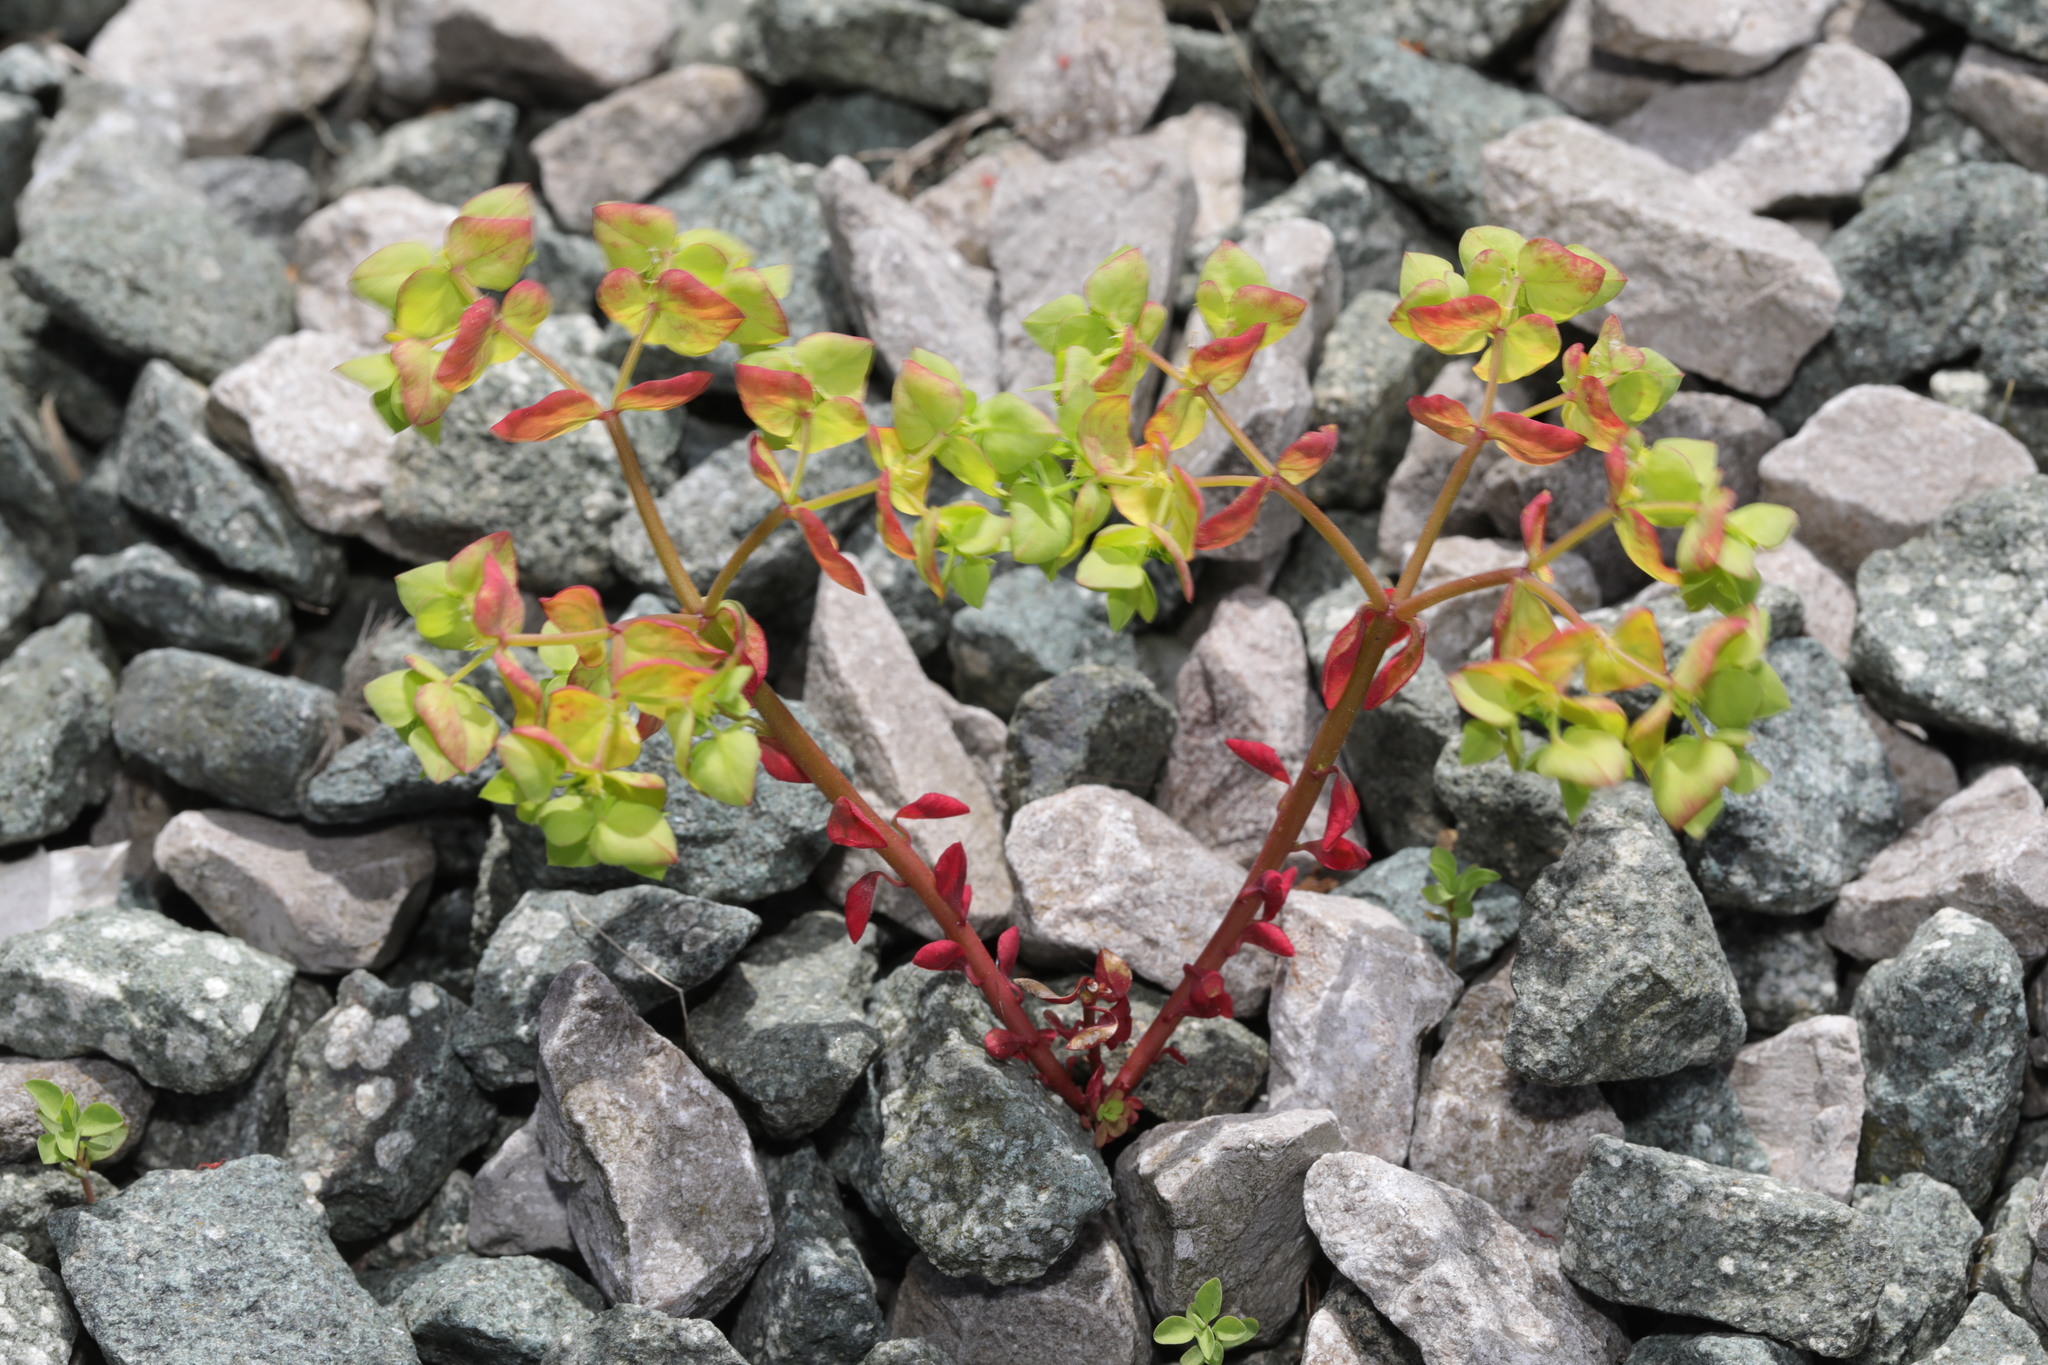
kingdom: Plantae
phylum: Tracheophyta
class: Magnoliopsida
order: Malpighiales
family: Euphorbiaceae
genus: Euphorbia
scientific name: Euphorbia peplus
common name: Petty spurge
